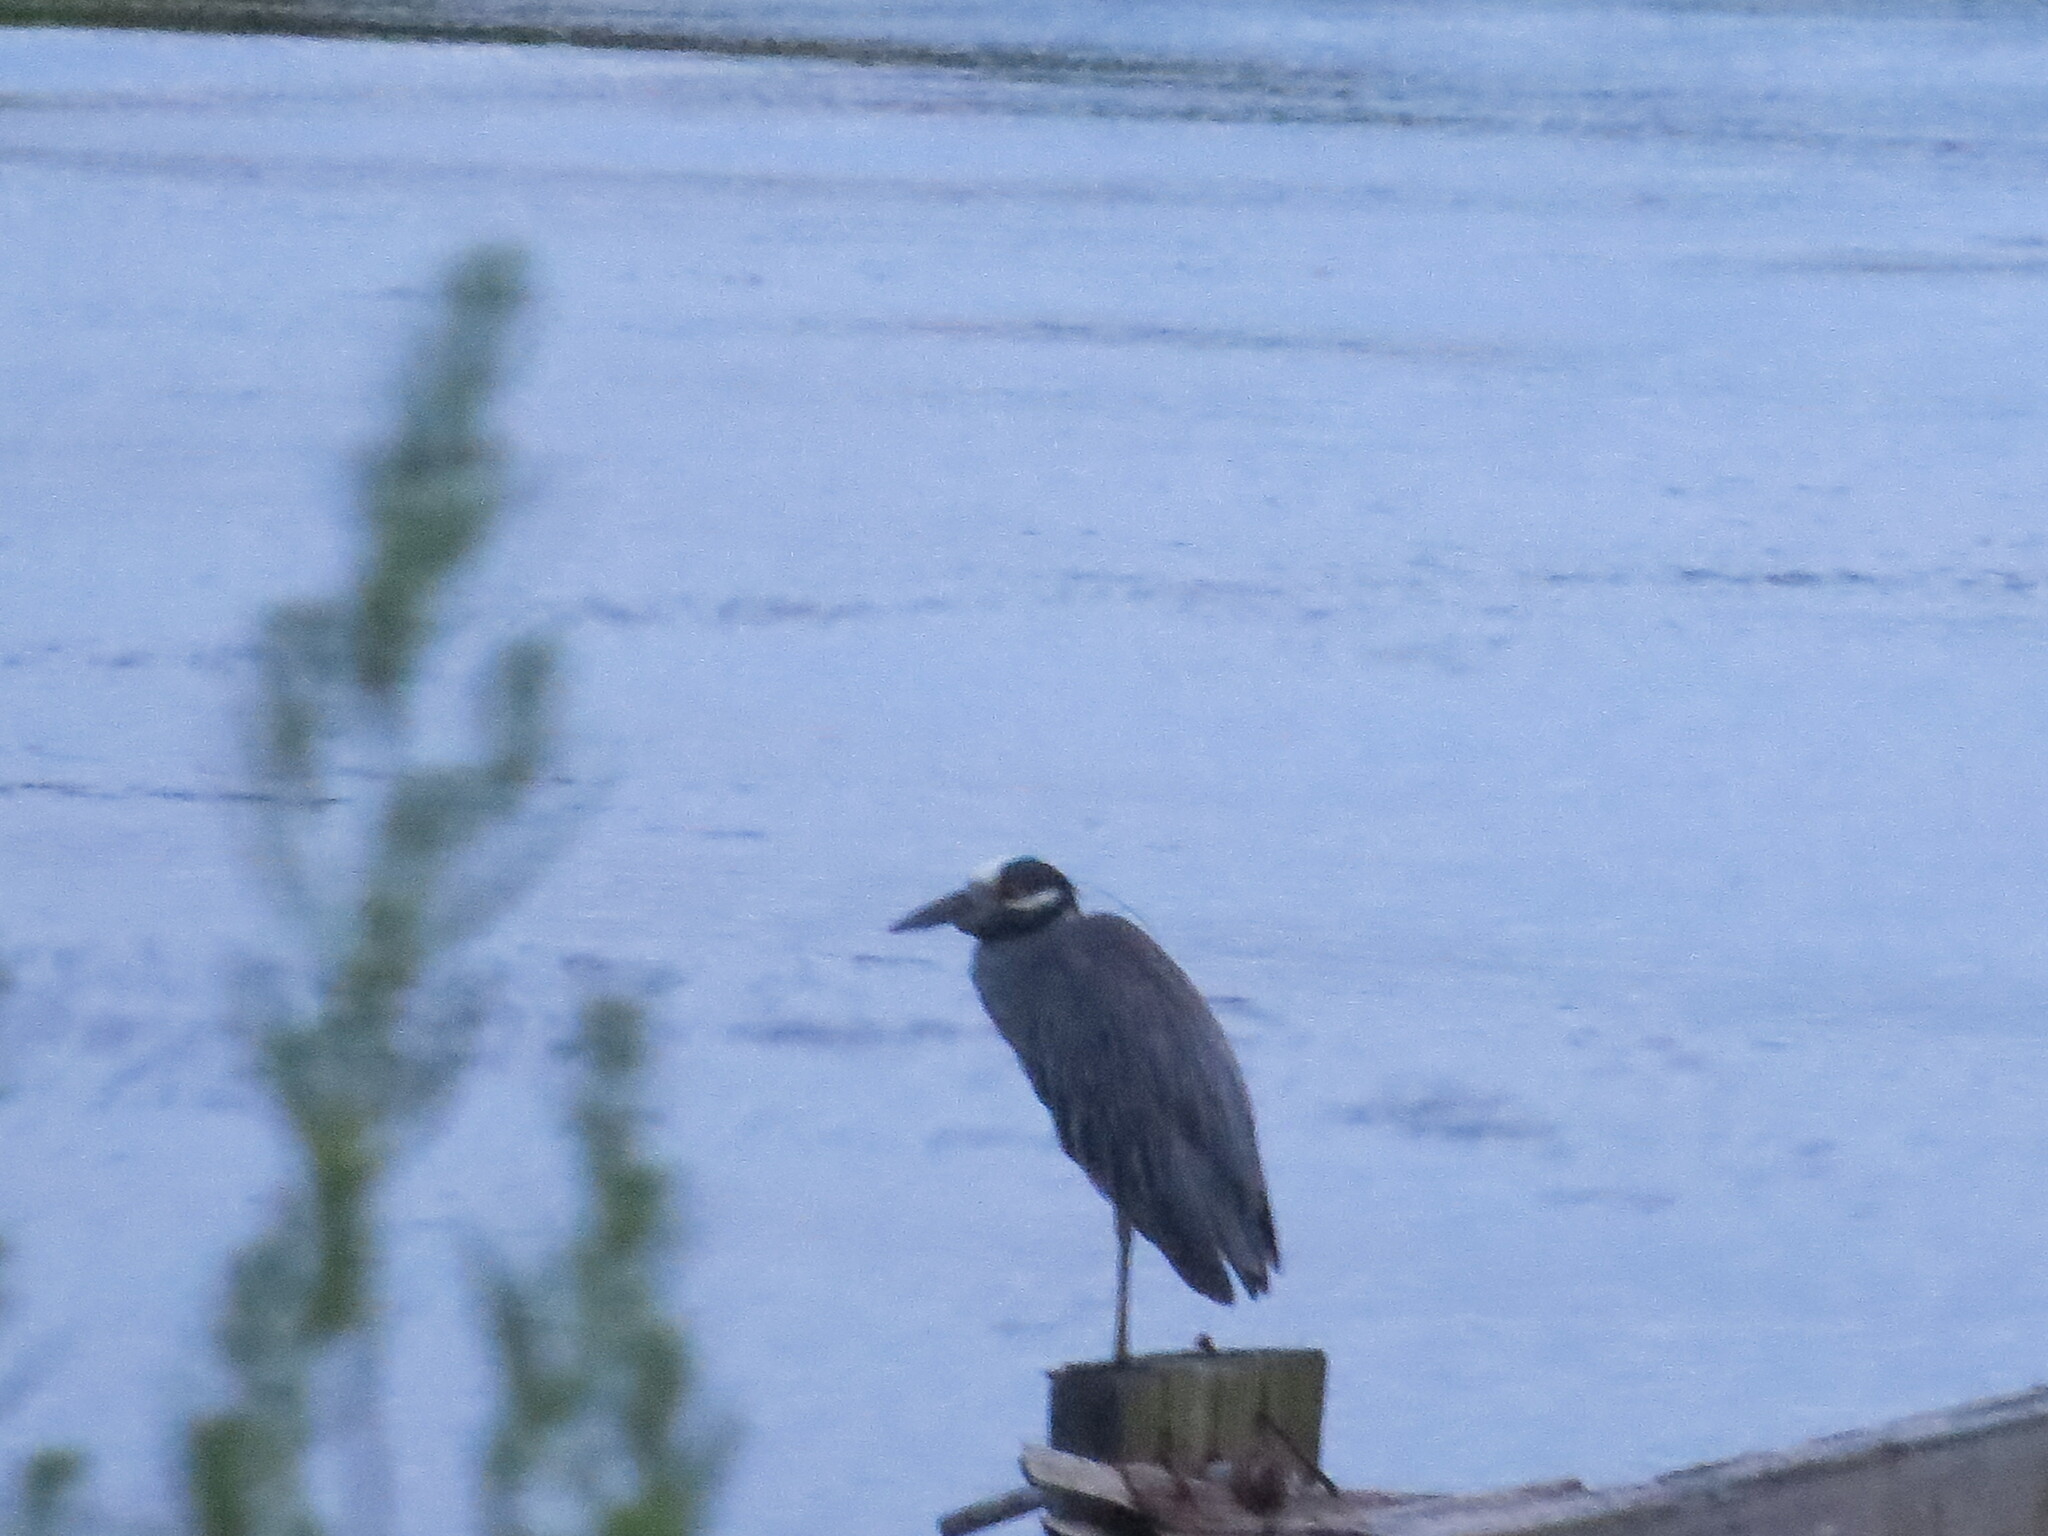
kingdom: Animalia
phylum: Chordata
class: Aves
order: Pelecaniformes
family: Ardeidae
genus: Nyctanassa
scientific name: Nyctanassa violacea
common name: Yellow-crowned night heron
